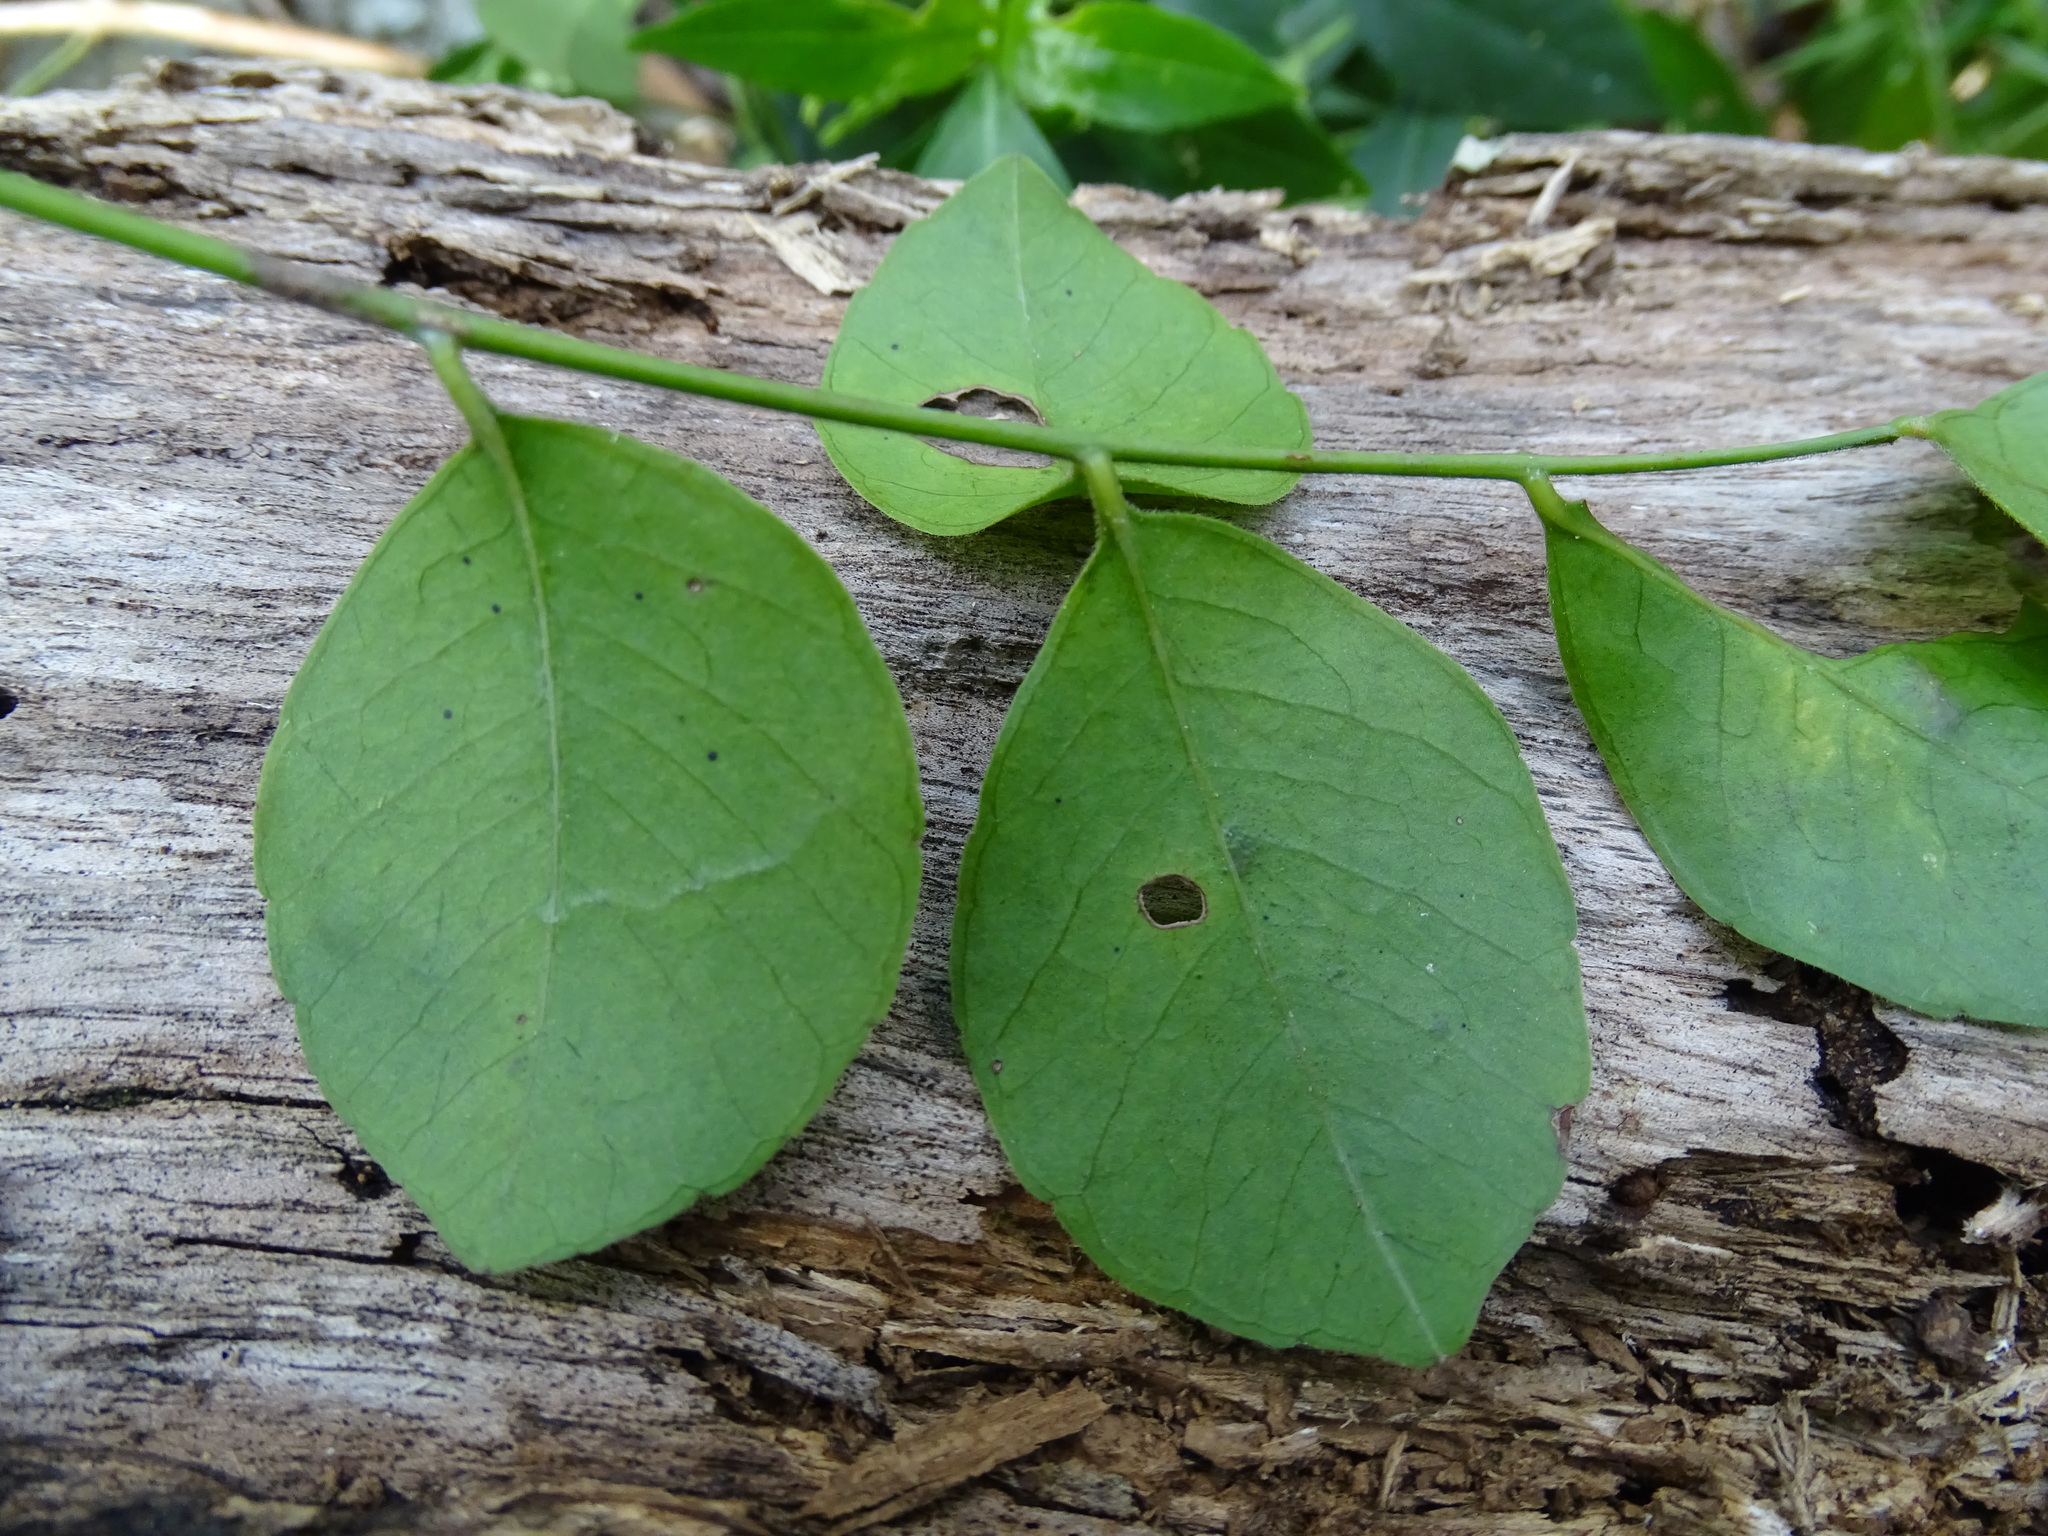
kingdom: Plantae
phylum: Tracheophyta
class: Magnoliopsida
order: Sapindales
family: Anacardiaceae
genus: Attilaea
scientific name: Attilaea abalak
